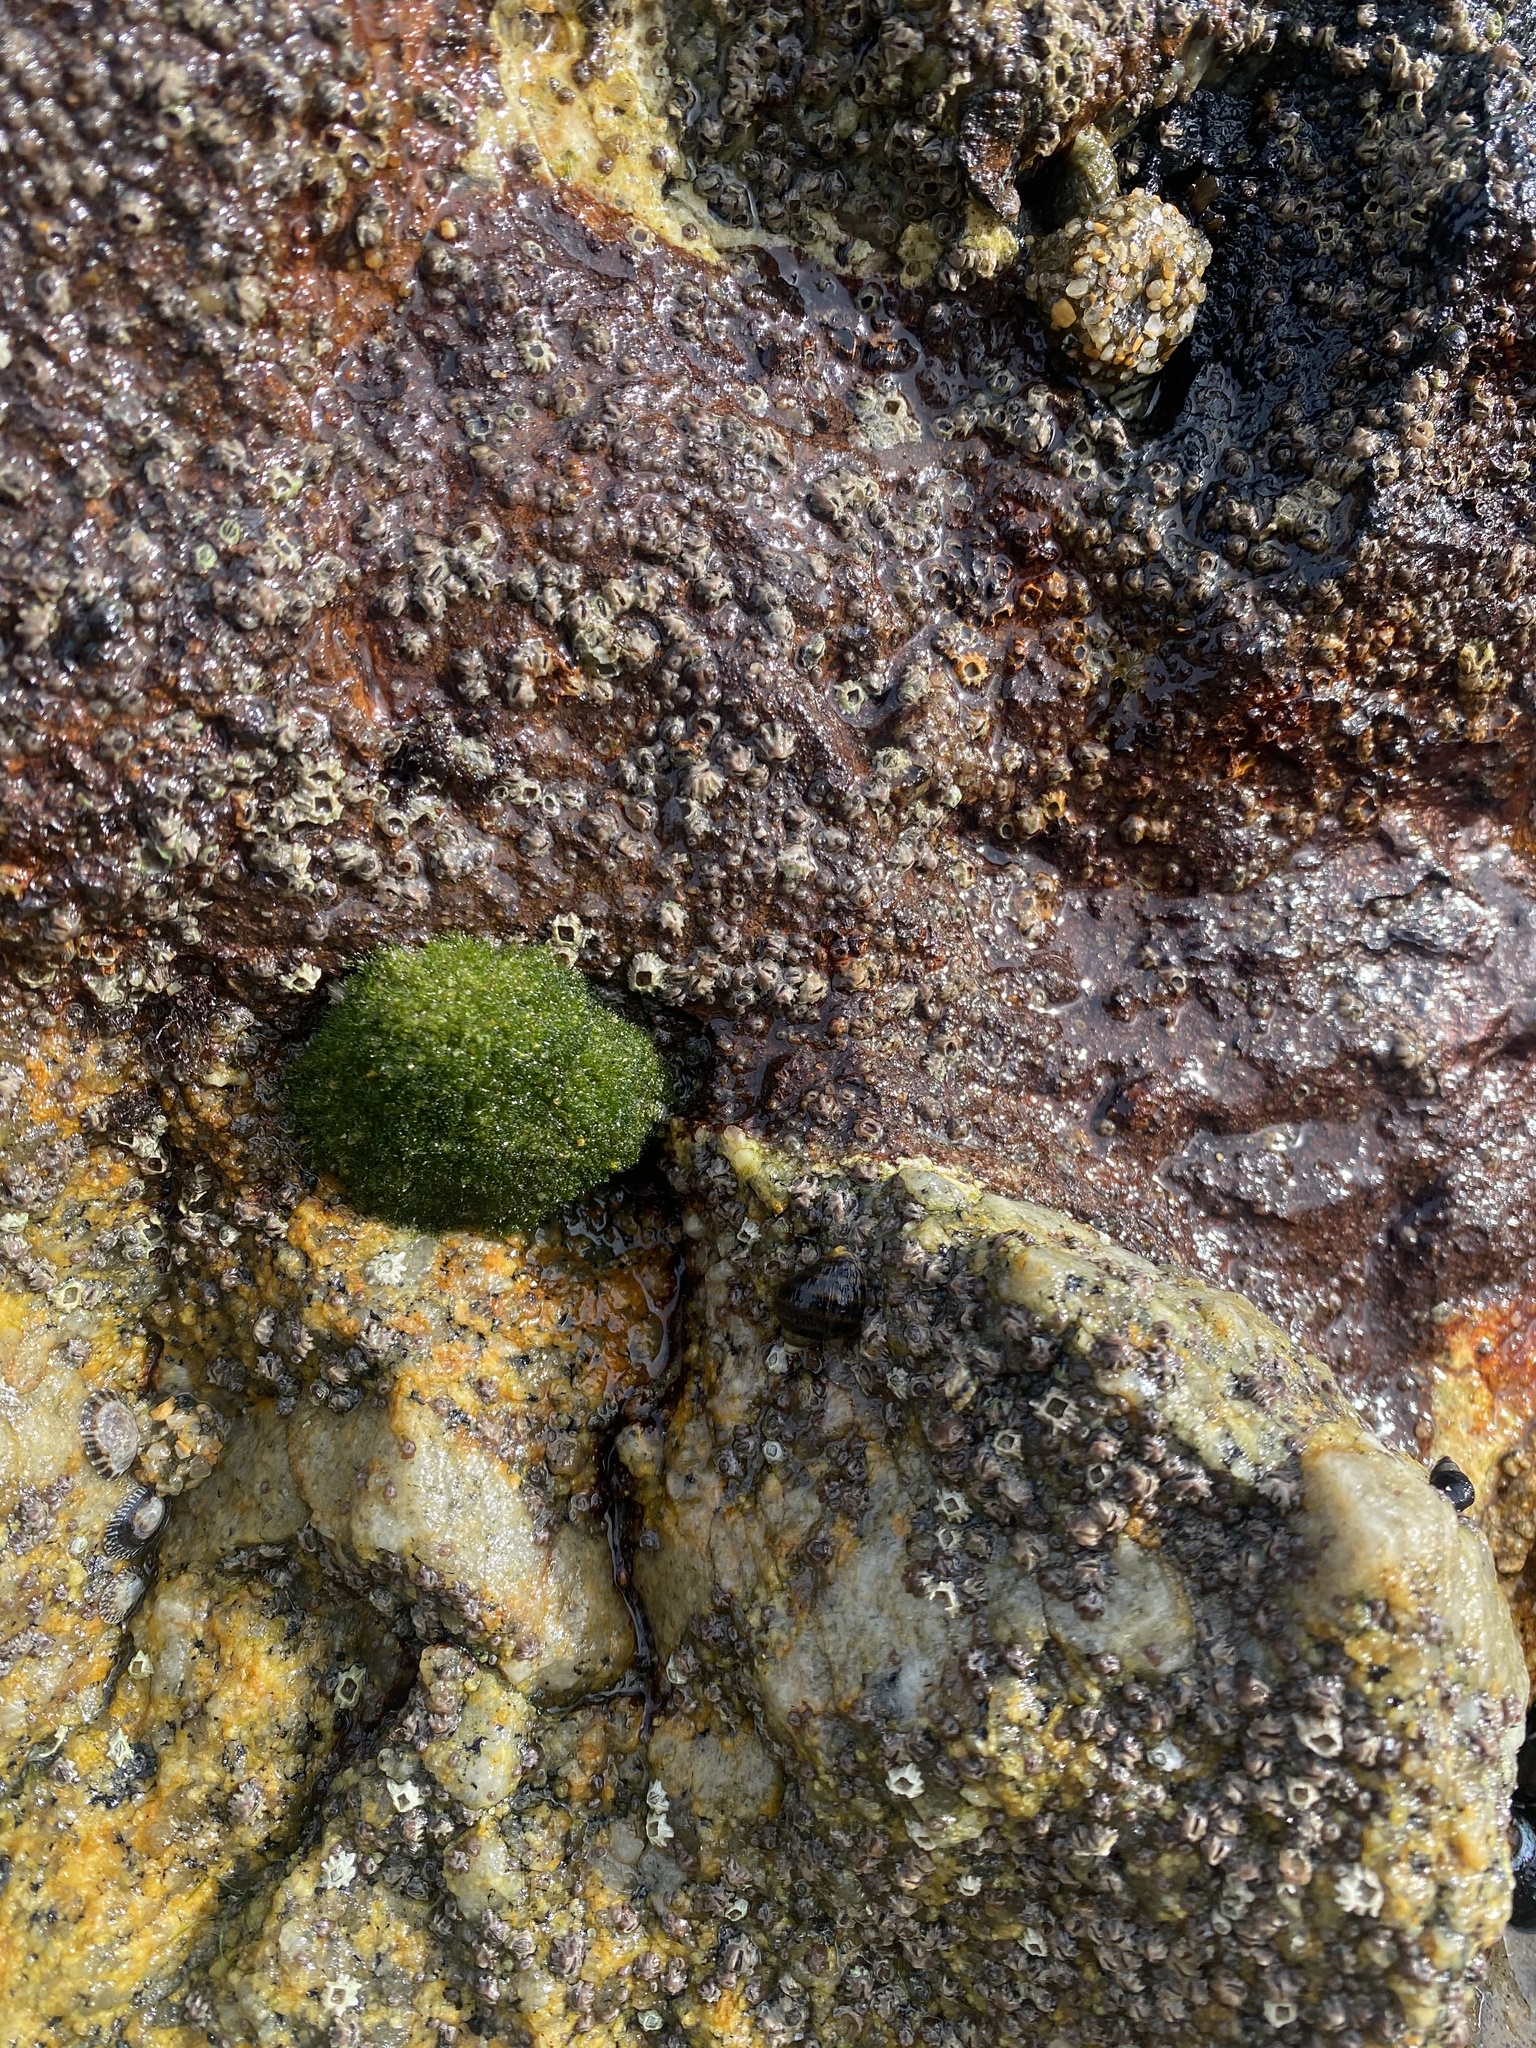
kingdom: Plantae
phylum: Chlorophyta
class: Ulvophyceae
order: Cladophorales
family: Cladophoraceae
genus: Cladophora
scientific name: Cladophora columbiana
